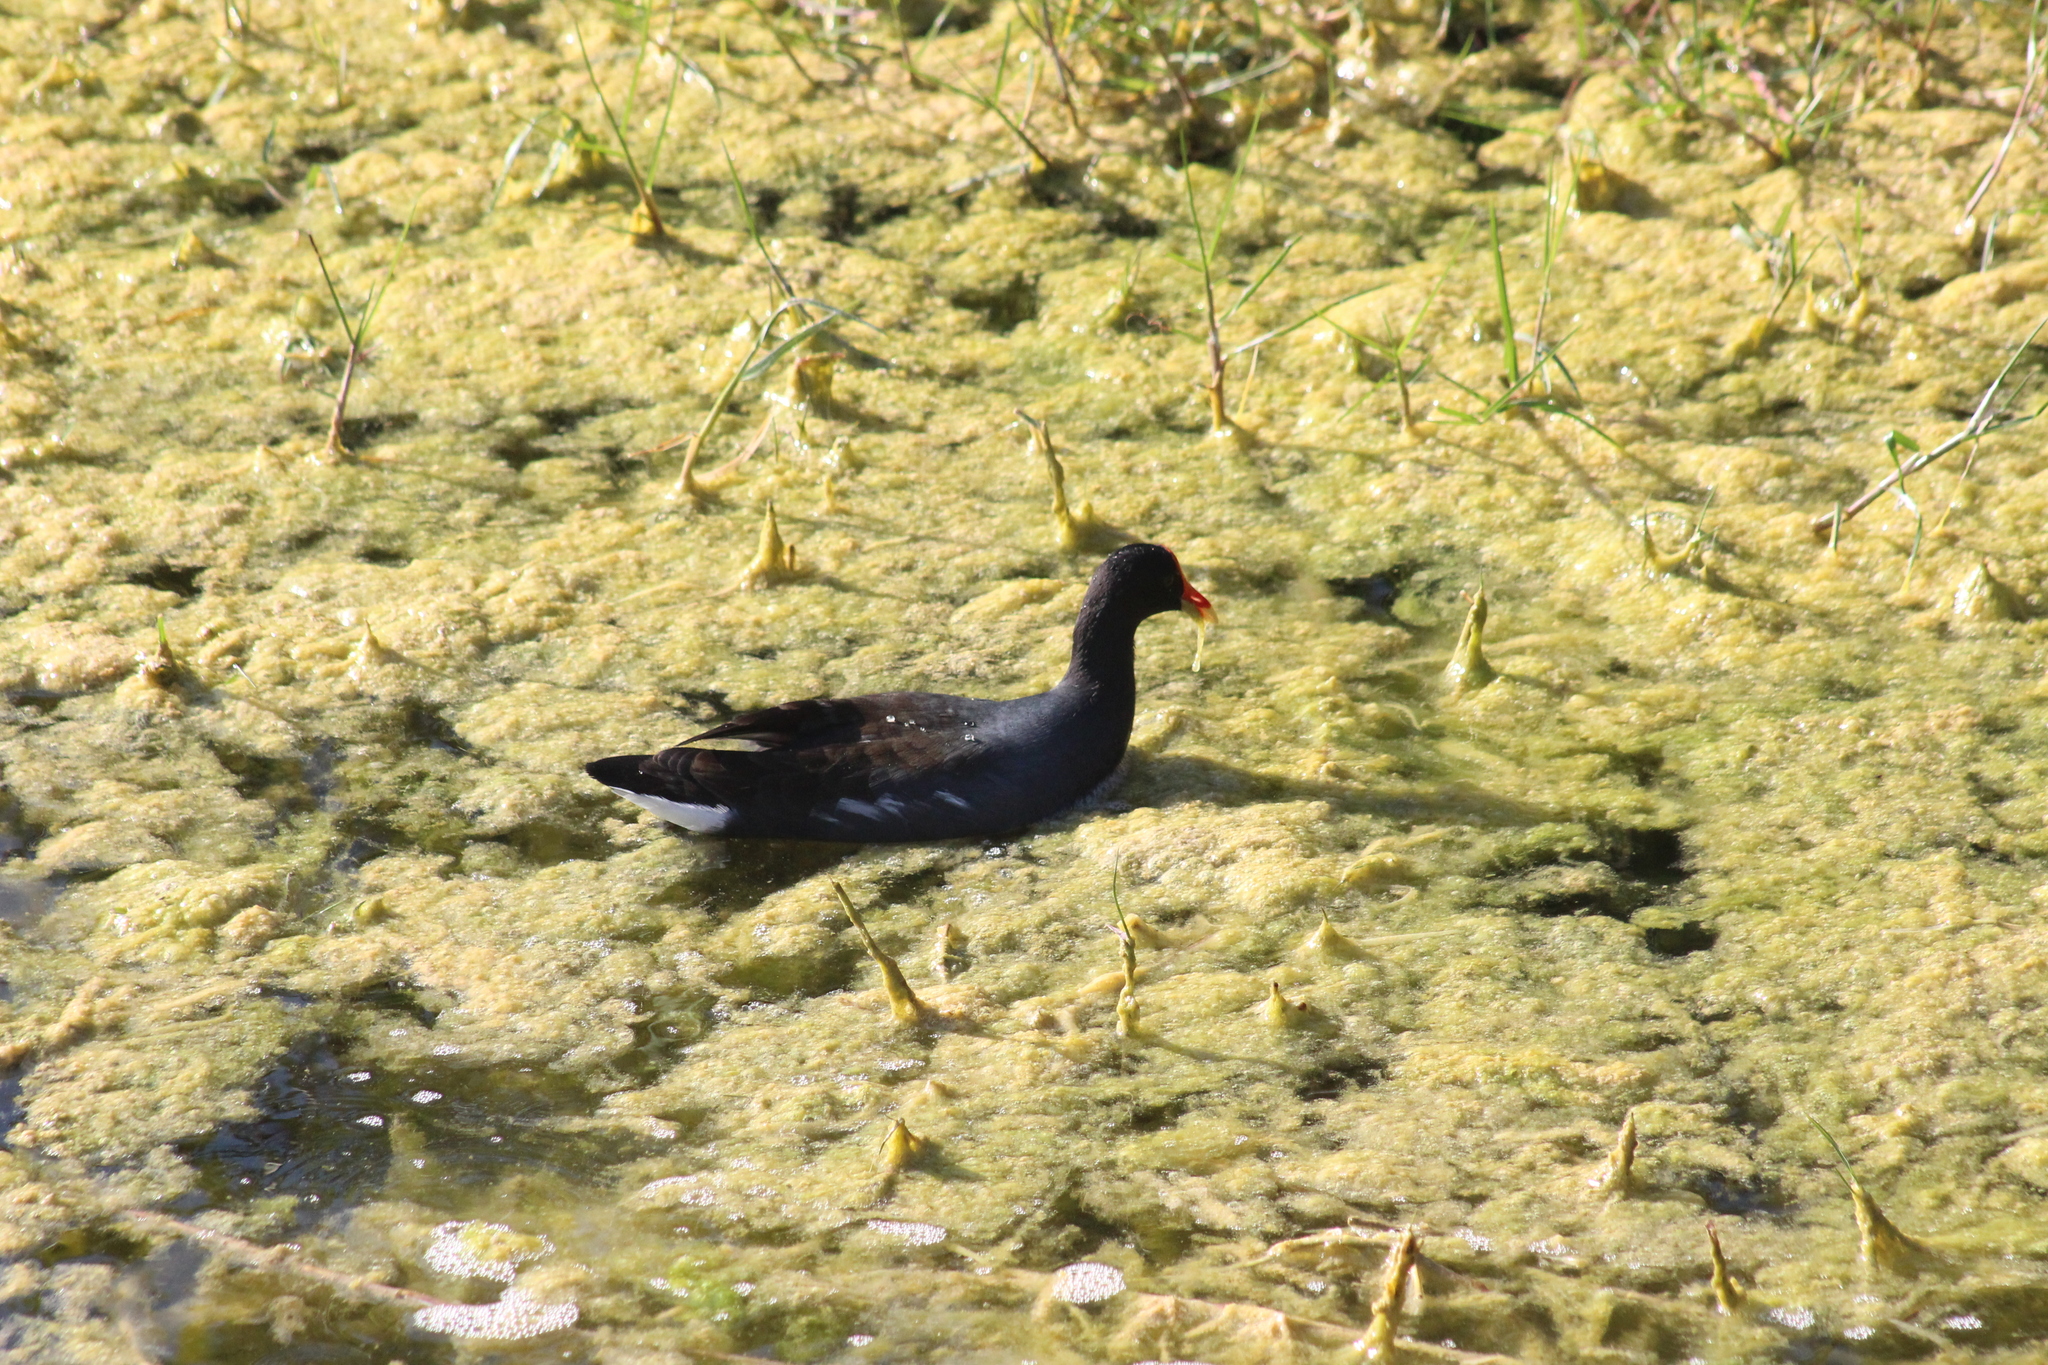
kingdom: Animalia
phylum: Chordata
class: Aves
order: Gruiformes
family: Rallidae
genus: Gallinula
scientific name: Gallinula chloropus
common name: Common moorhen
